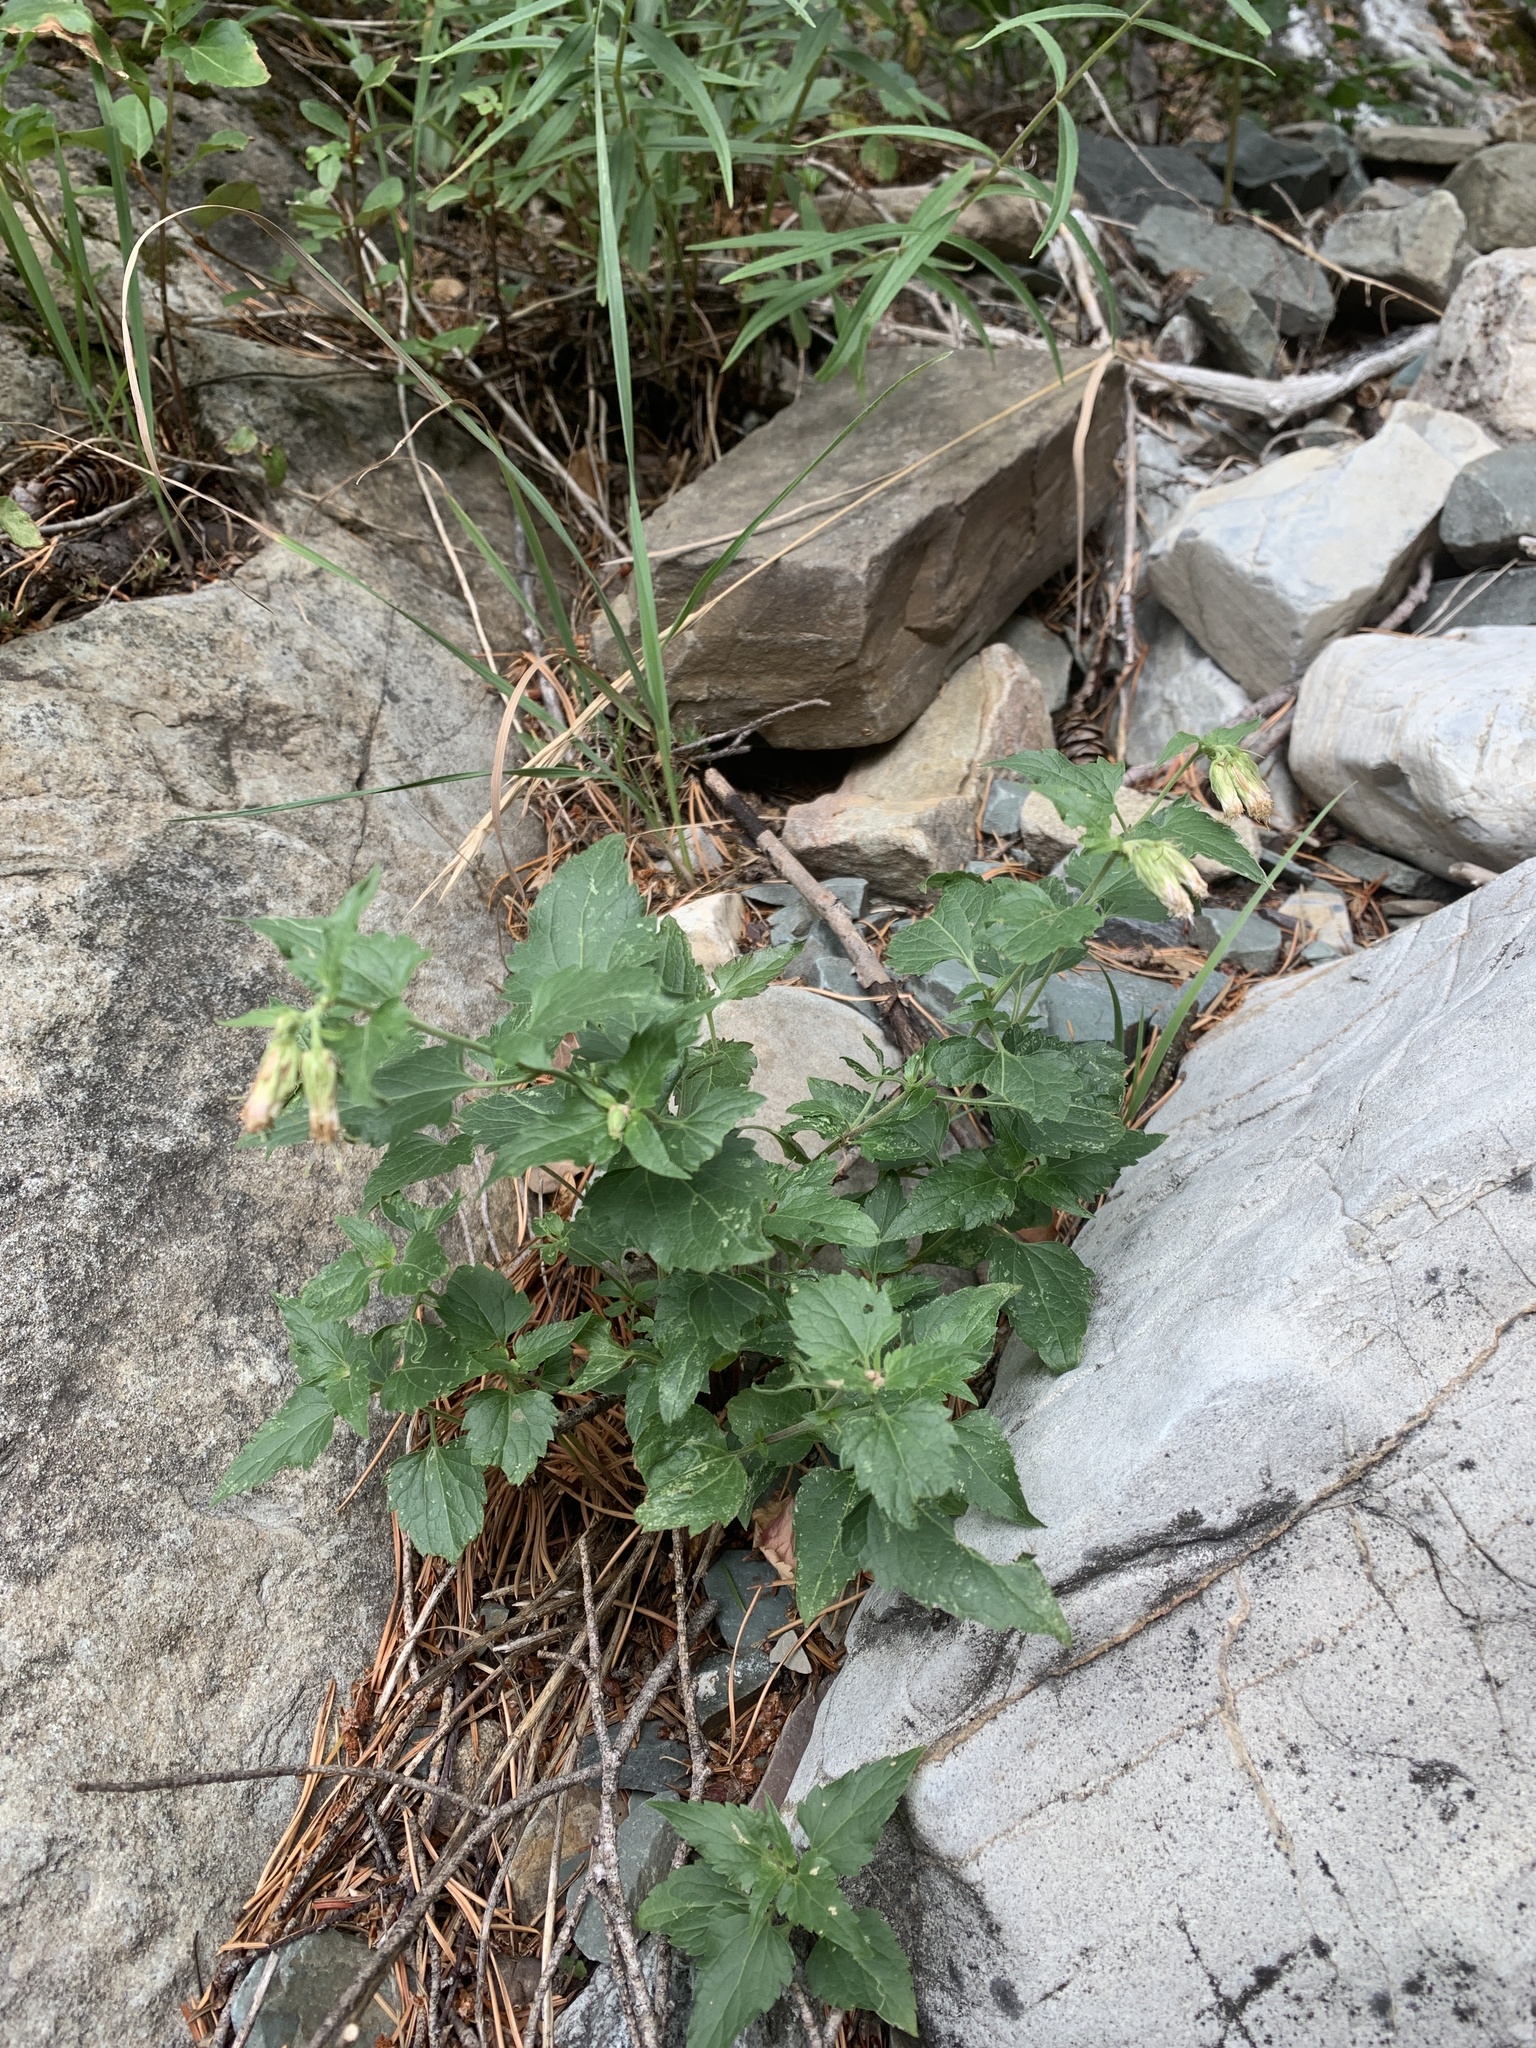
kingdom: Plantae
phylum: Tracheophyta
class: Magnoliopsida
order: Asterales
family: Asteraceae
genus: Brickellia
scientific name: Brickellia grandiflora
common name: Large-flowered brickellia
